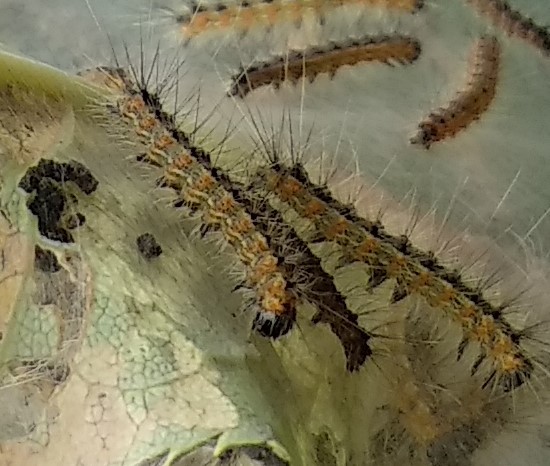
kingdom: Animalia
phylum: Arthropoda
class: Insecta
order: Lepidoptera
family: Erebidae
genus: Hyphantria
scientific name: Hyphantria cunea
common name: American white moth
